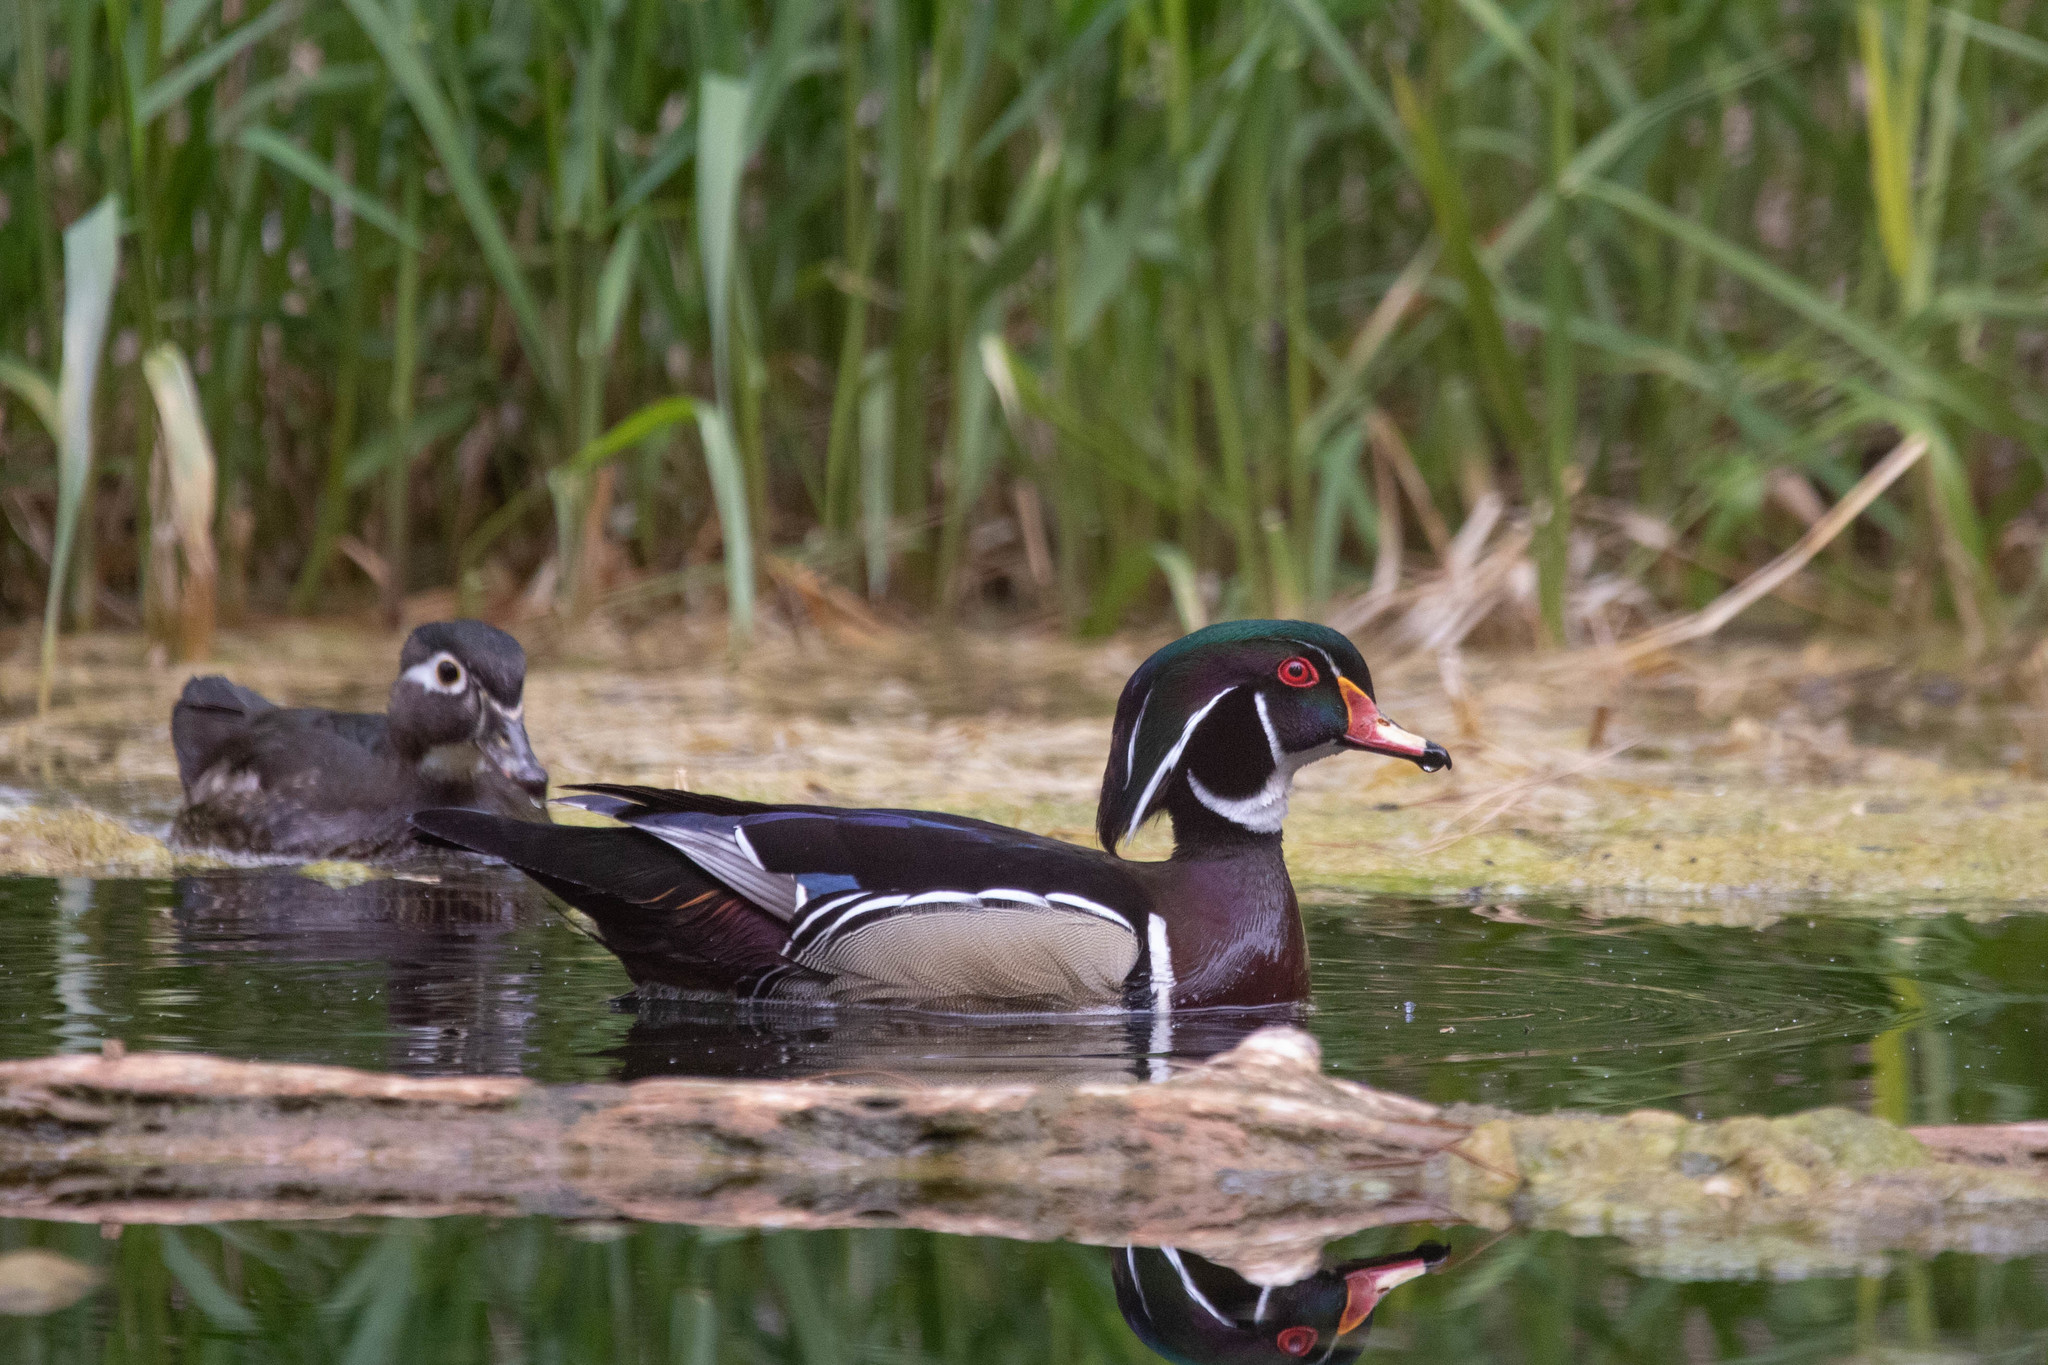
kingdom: Animalia
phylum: Chordata
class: Aves
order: Anseriformes
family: Anatidae
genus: Aix
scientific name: Aix sponsa
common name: Wood duck
